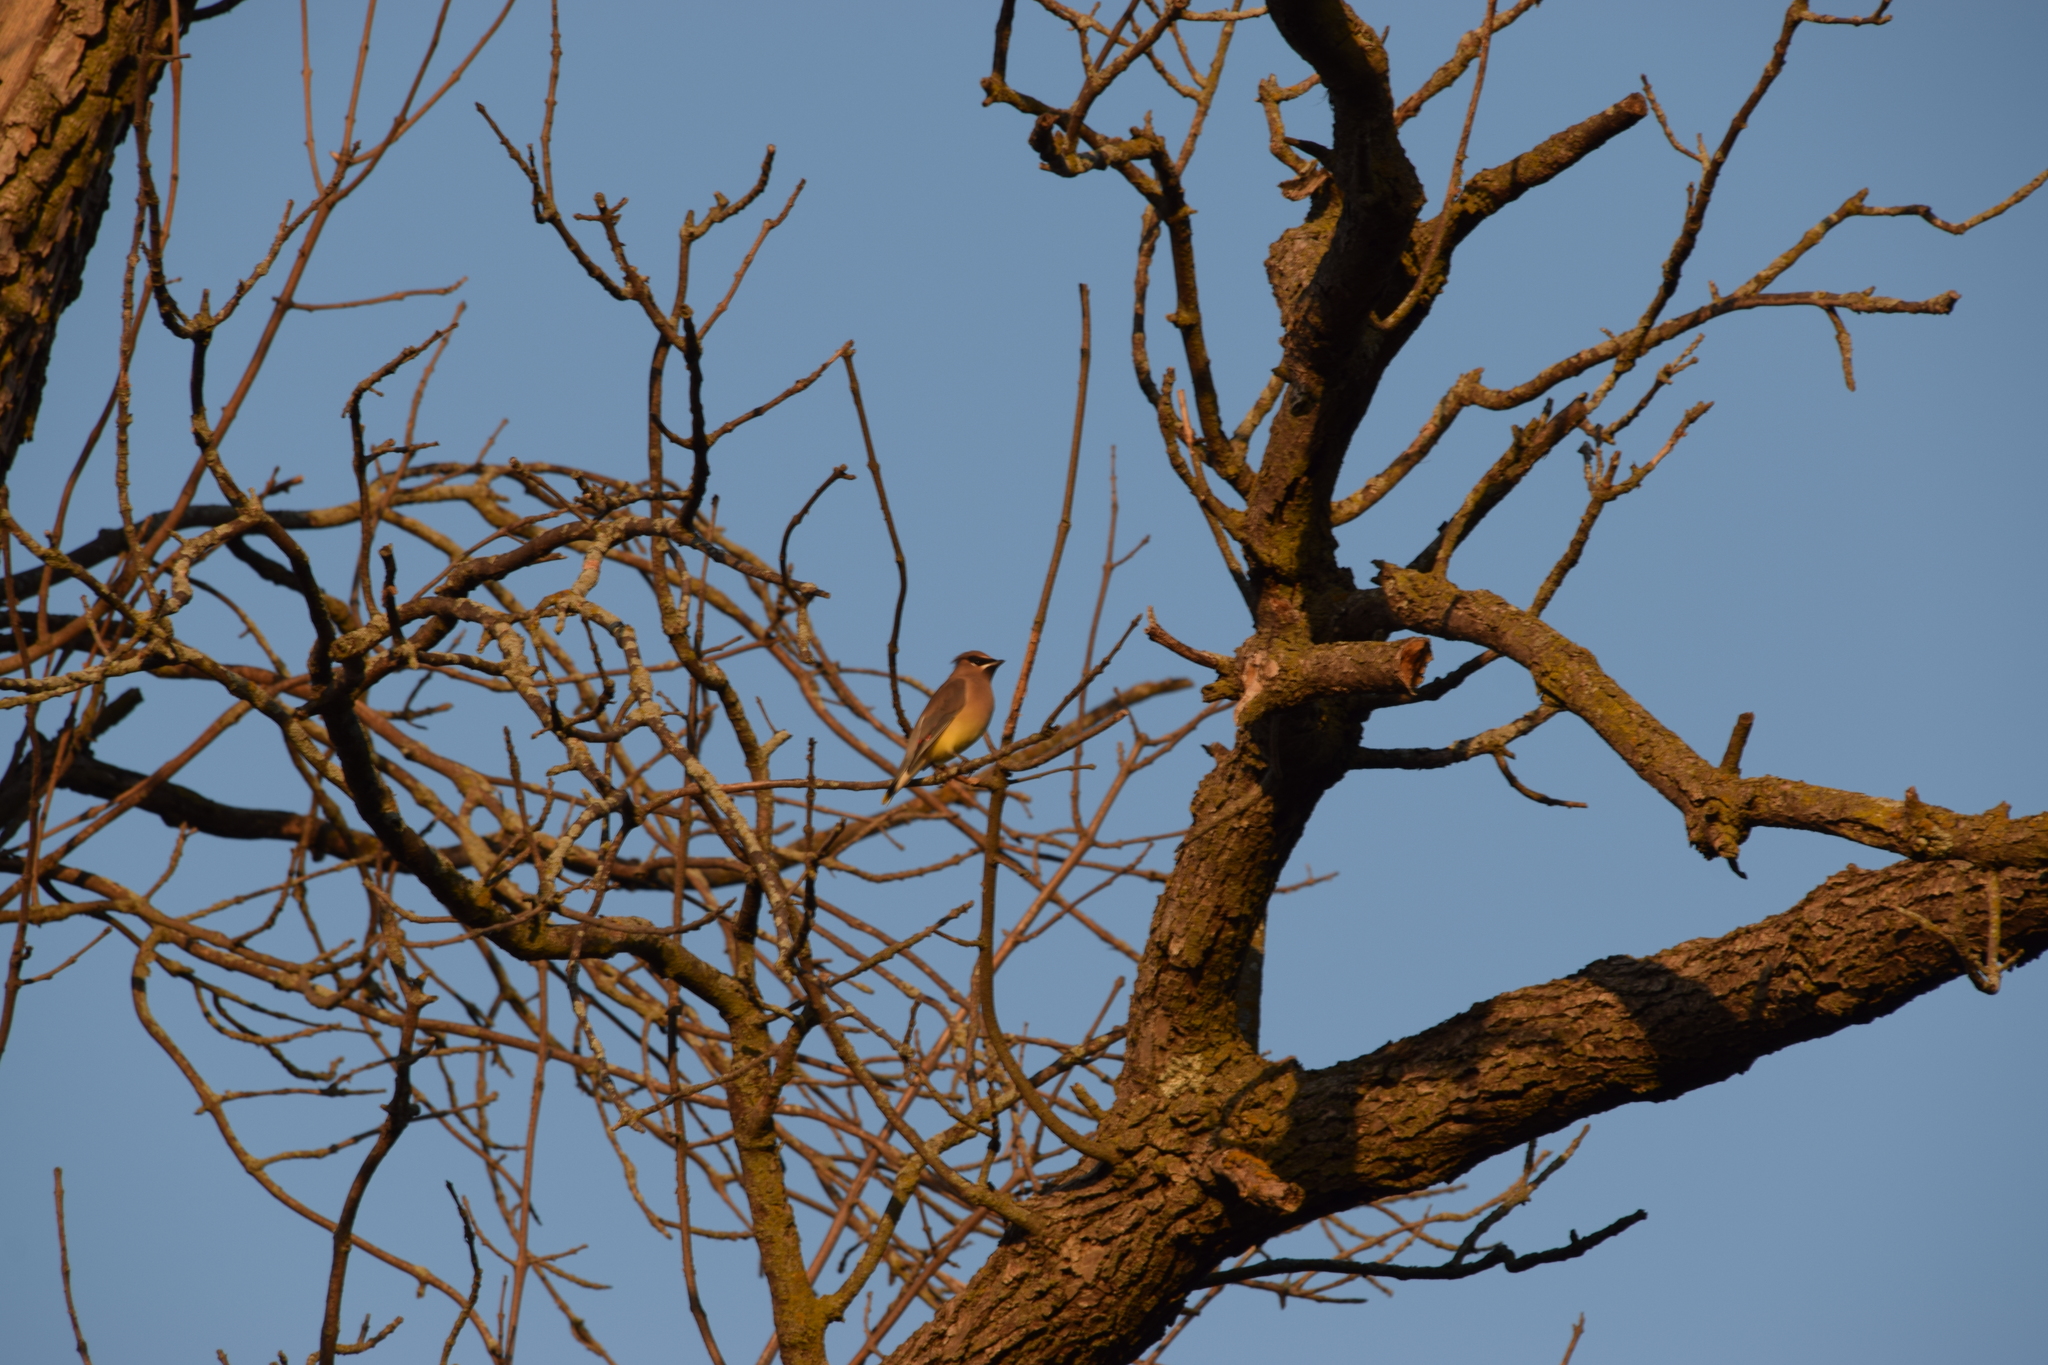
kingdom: Animalia
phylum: Chordata
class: Aves
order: Passeriformes
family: Bombycillidae
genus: Bombycilla
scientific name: Bombycilla cedrorum
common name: Cedar waxwing
